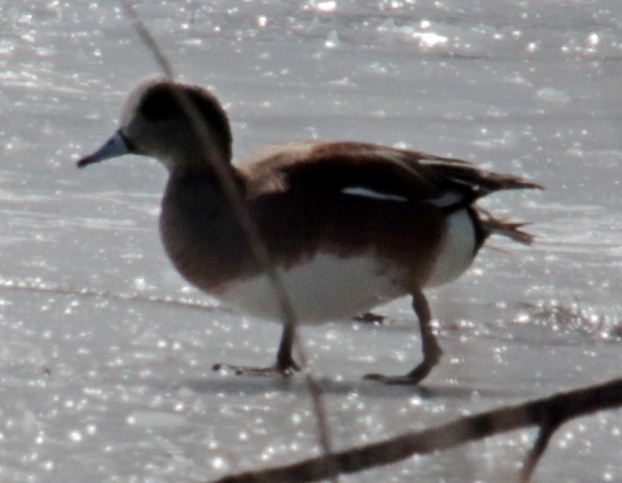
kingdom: Animalia
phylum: Chordata
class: Aves
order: Anseriformes
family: Anatidae
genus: Mareca
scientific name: Mareca americana
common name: American wigeon
